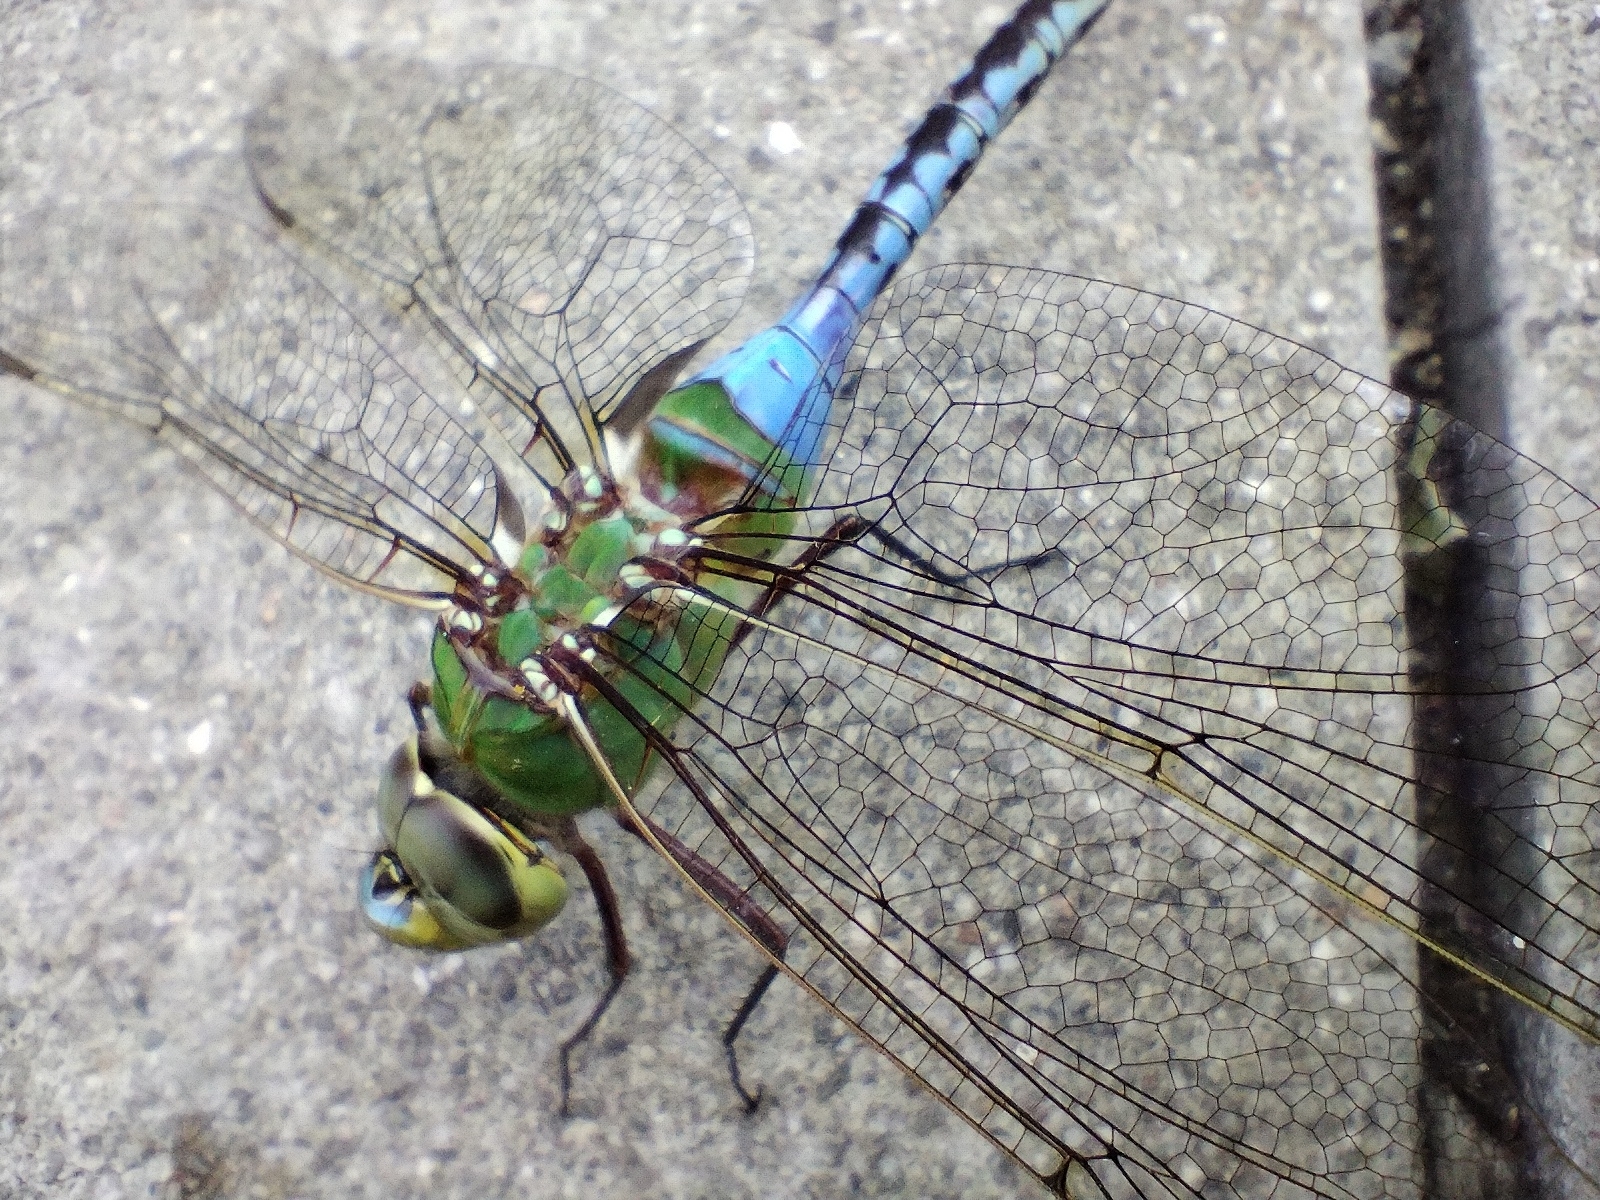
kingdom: Animalia
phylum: Arthropoda
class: Insecta
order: Odonata
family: Aeshnidae
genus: Anax
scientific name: Anax junius
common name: Common green darner
